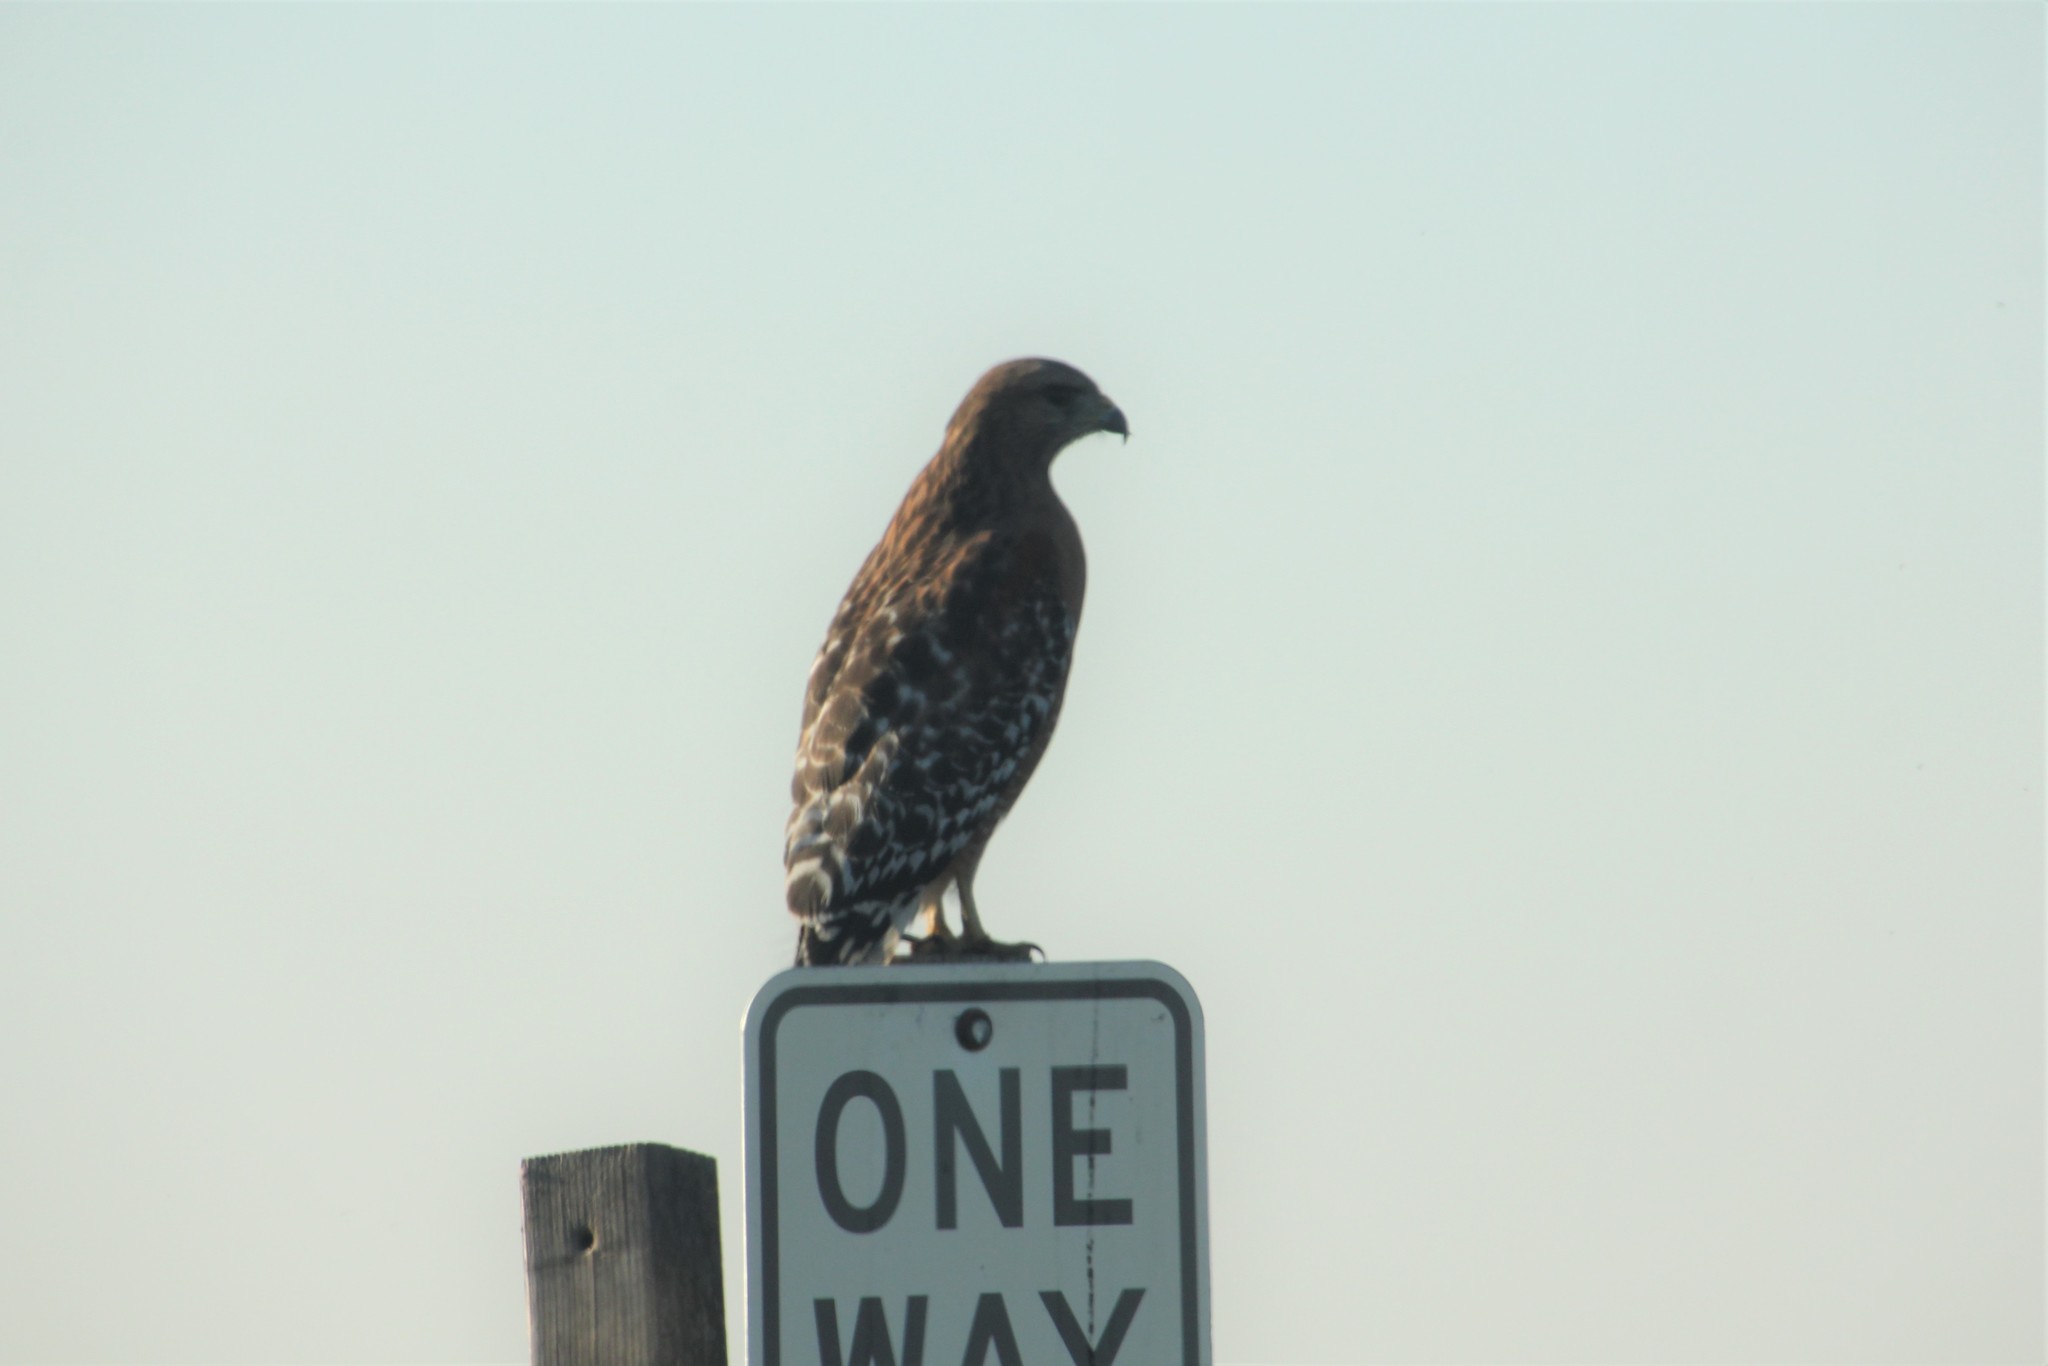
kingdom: Animalia
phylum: Chordata
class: Aves
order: Accipitriformes
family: Accipitridae
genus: Buteo
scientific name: Buteo lineatus
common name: Red-shouldered hawk
